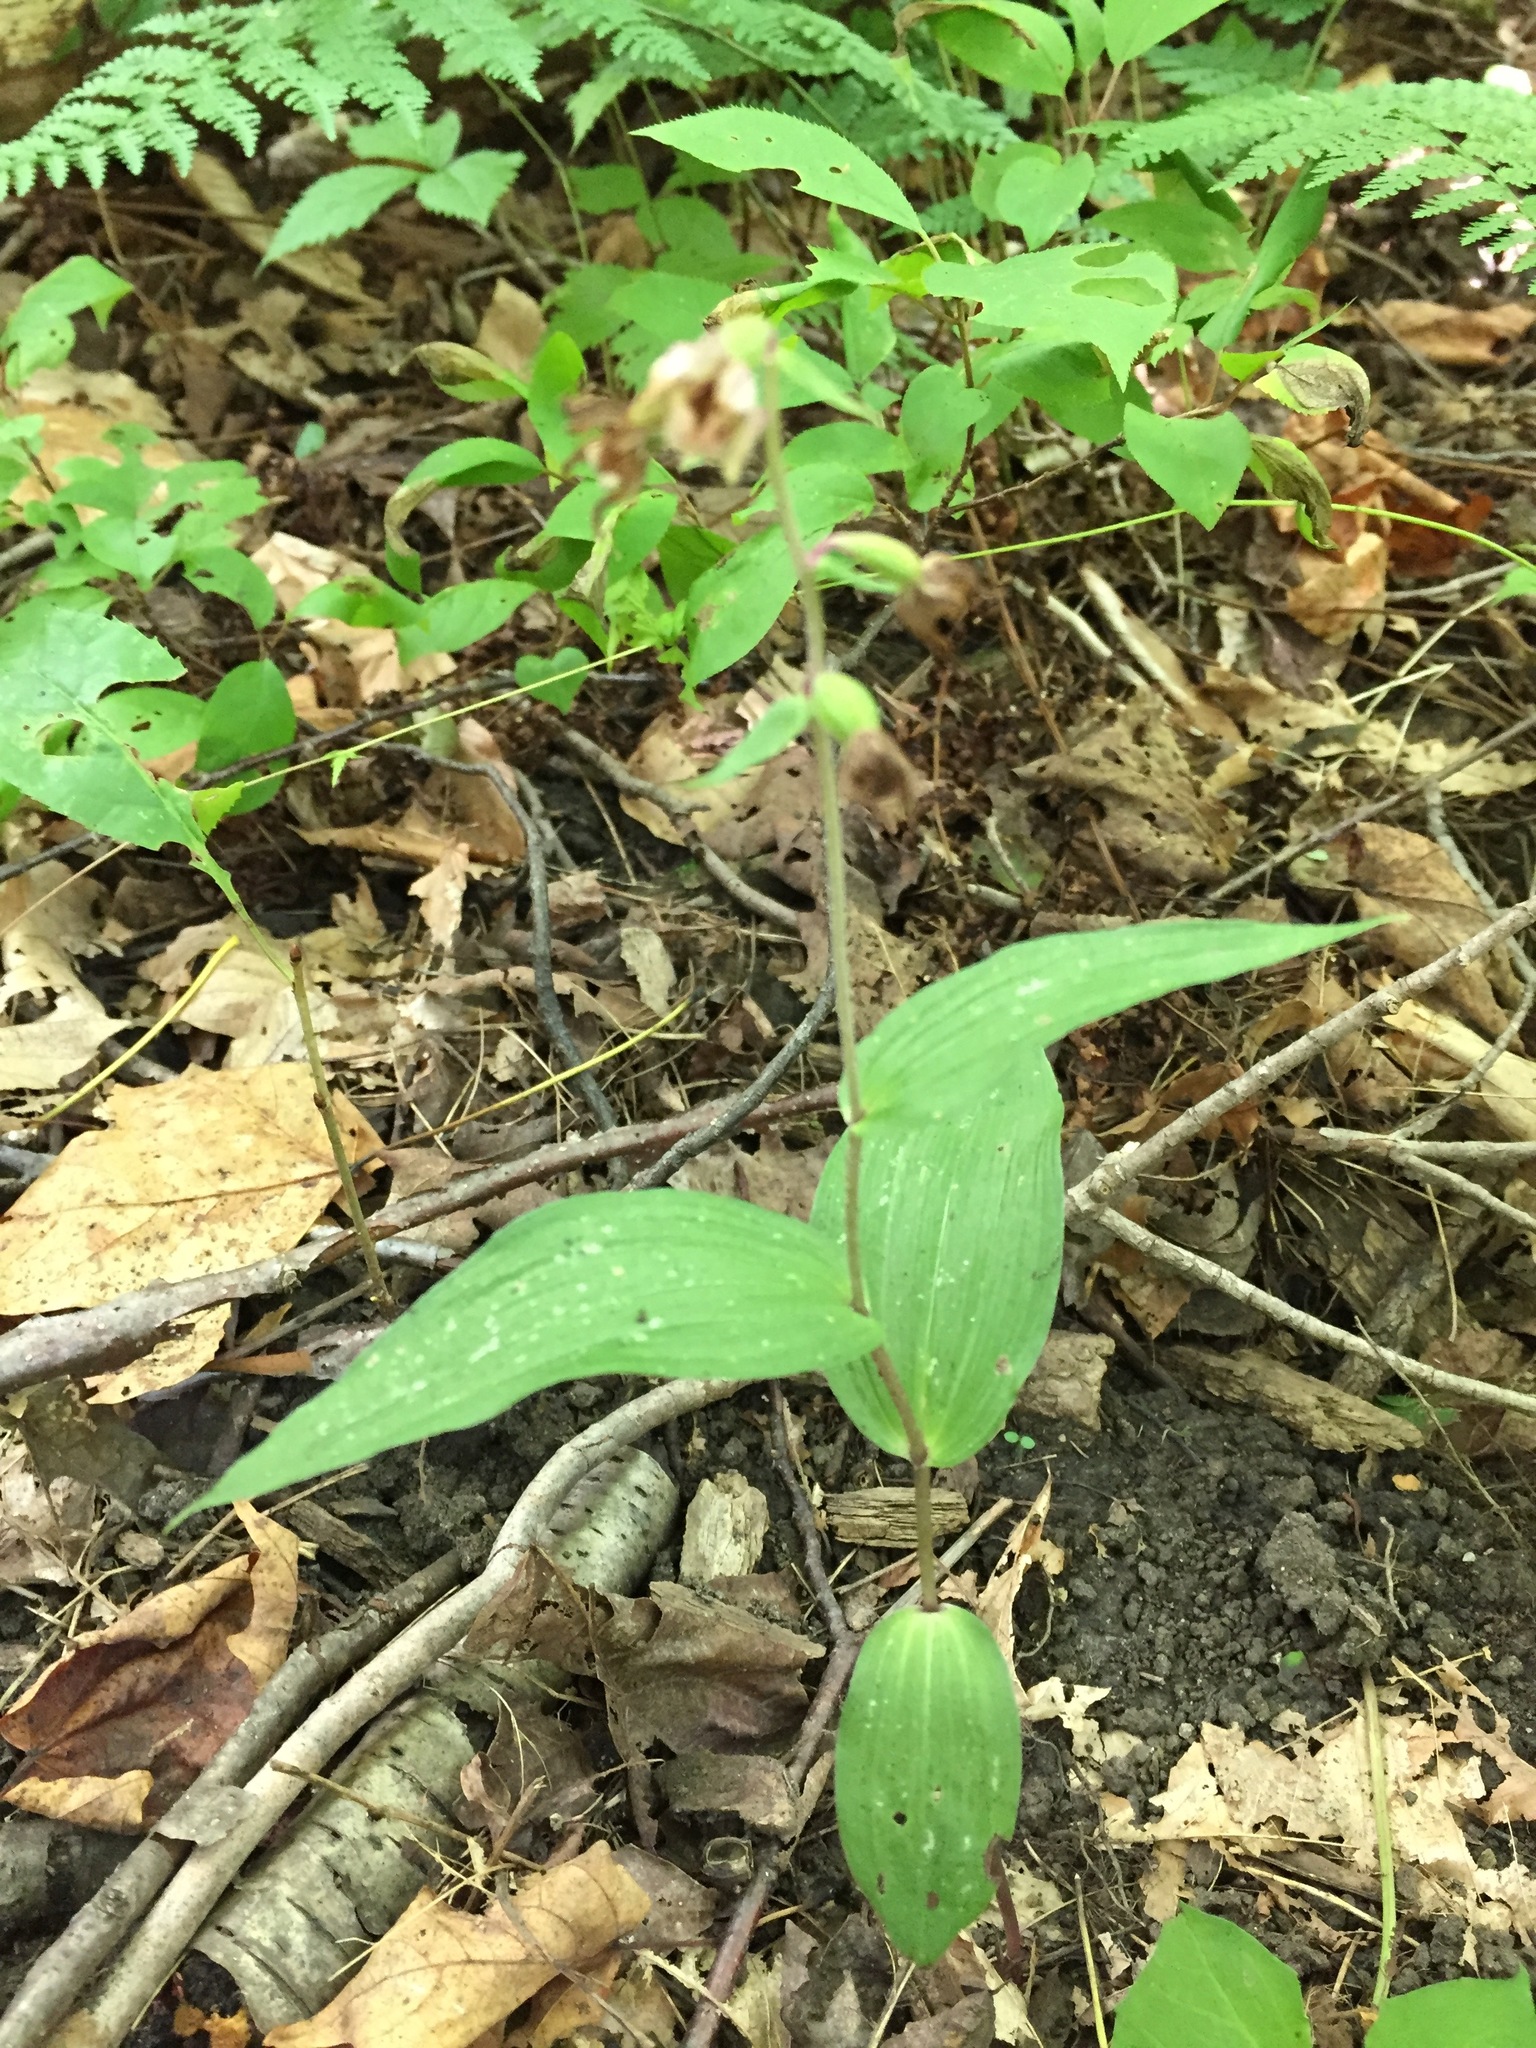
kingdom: Plantae
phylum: Tracheophyta
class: Liliopsida
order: Asparagales
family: Orchidaceae
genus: Epipactis
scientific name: Epipactis helleborine
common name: Broad-leaved helleborine
